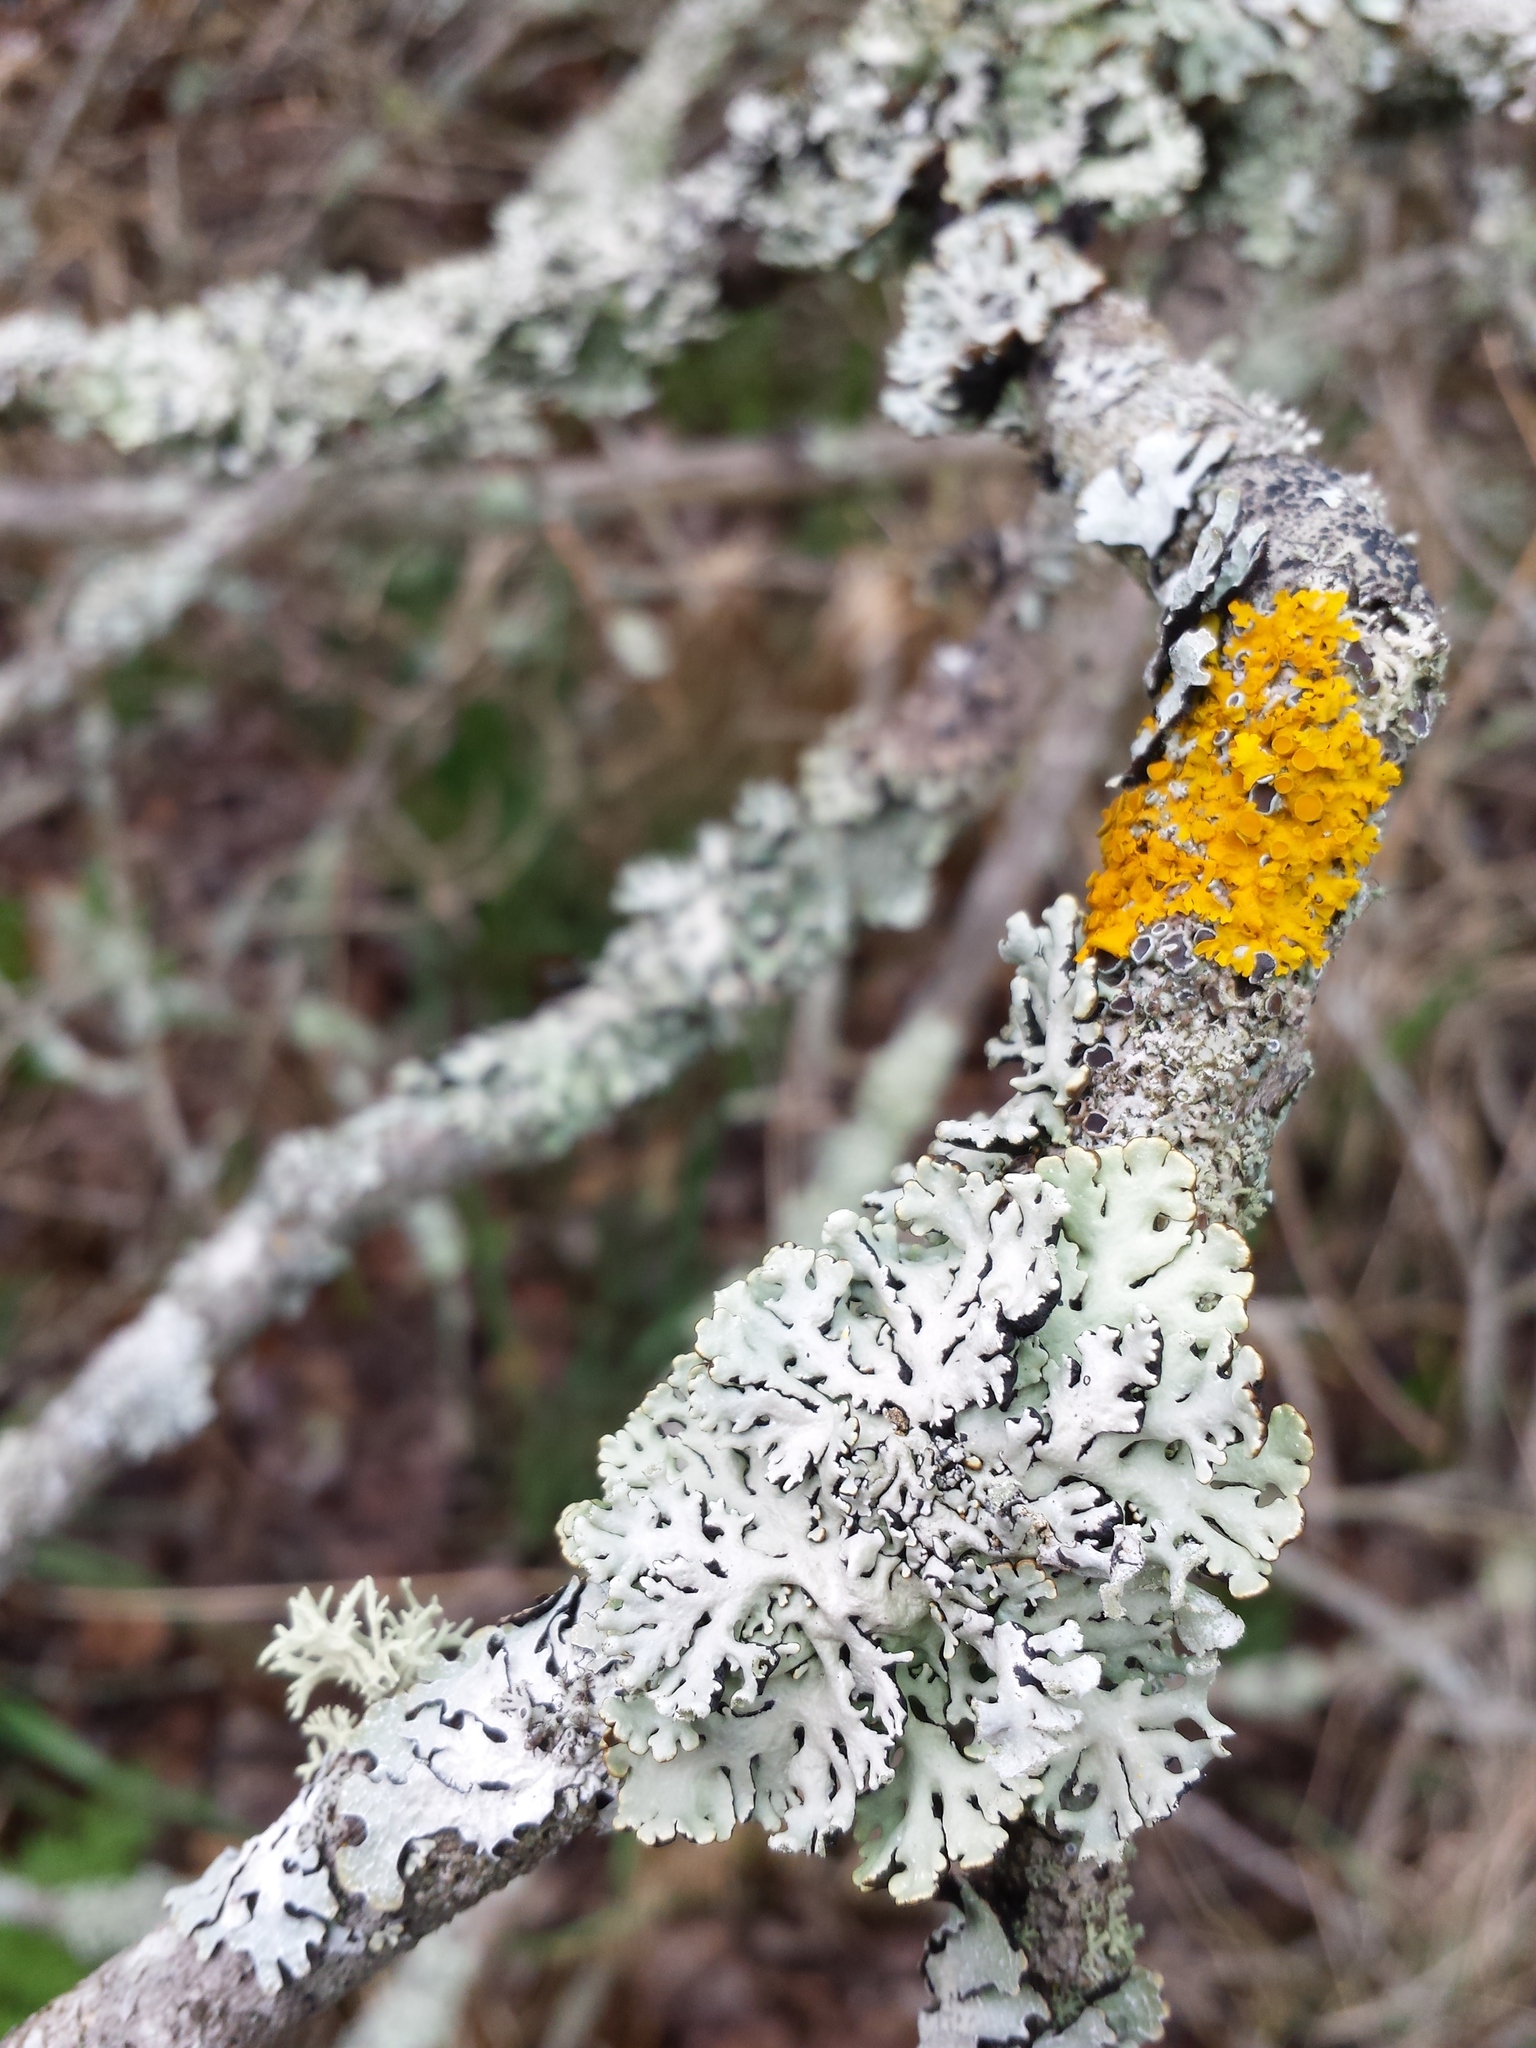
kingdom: Fungi
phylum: Ascomycota
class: Lecanoromycetes
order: Lecanorales
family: Parmeliaceae
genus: Hypogymnia
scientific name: Hypogymnia physodes
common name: Dark crottle
